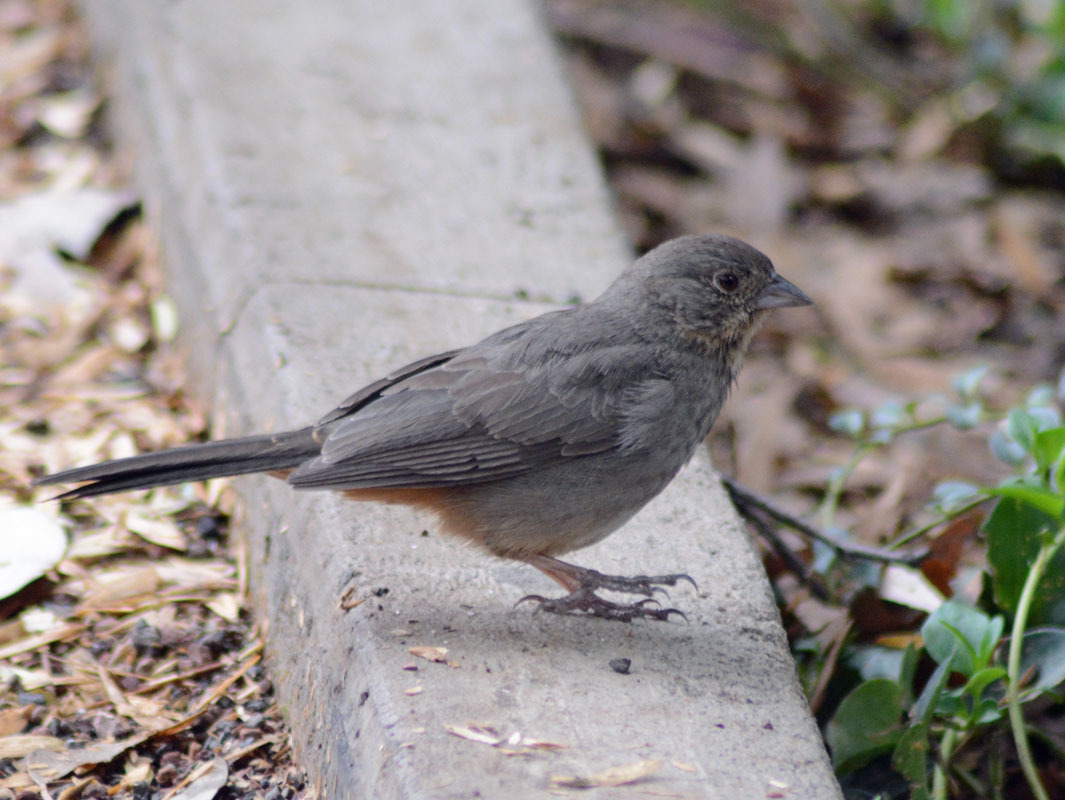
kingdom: Animalia
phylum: Chordata
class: Aves
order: Passeriformes
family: Passerellidae
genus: Melozone
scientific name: Melozone fusca
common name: Canyon towhee
